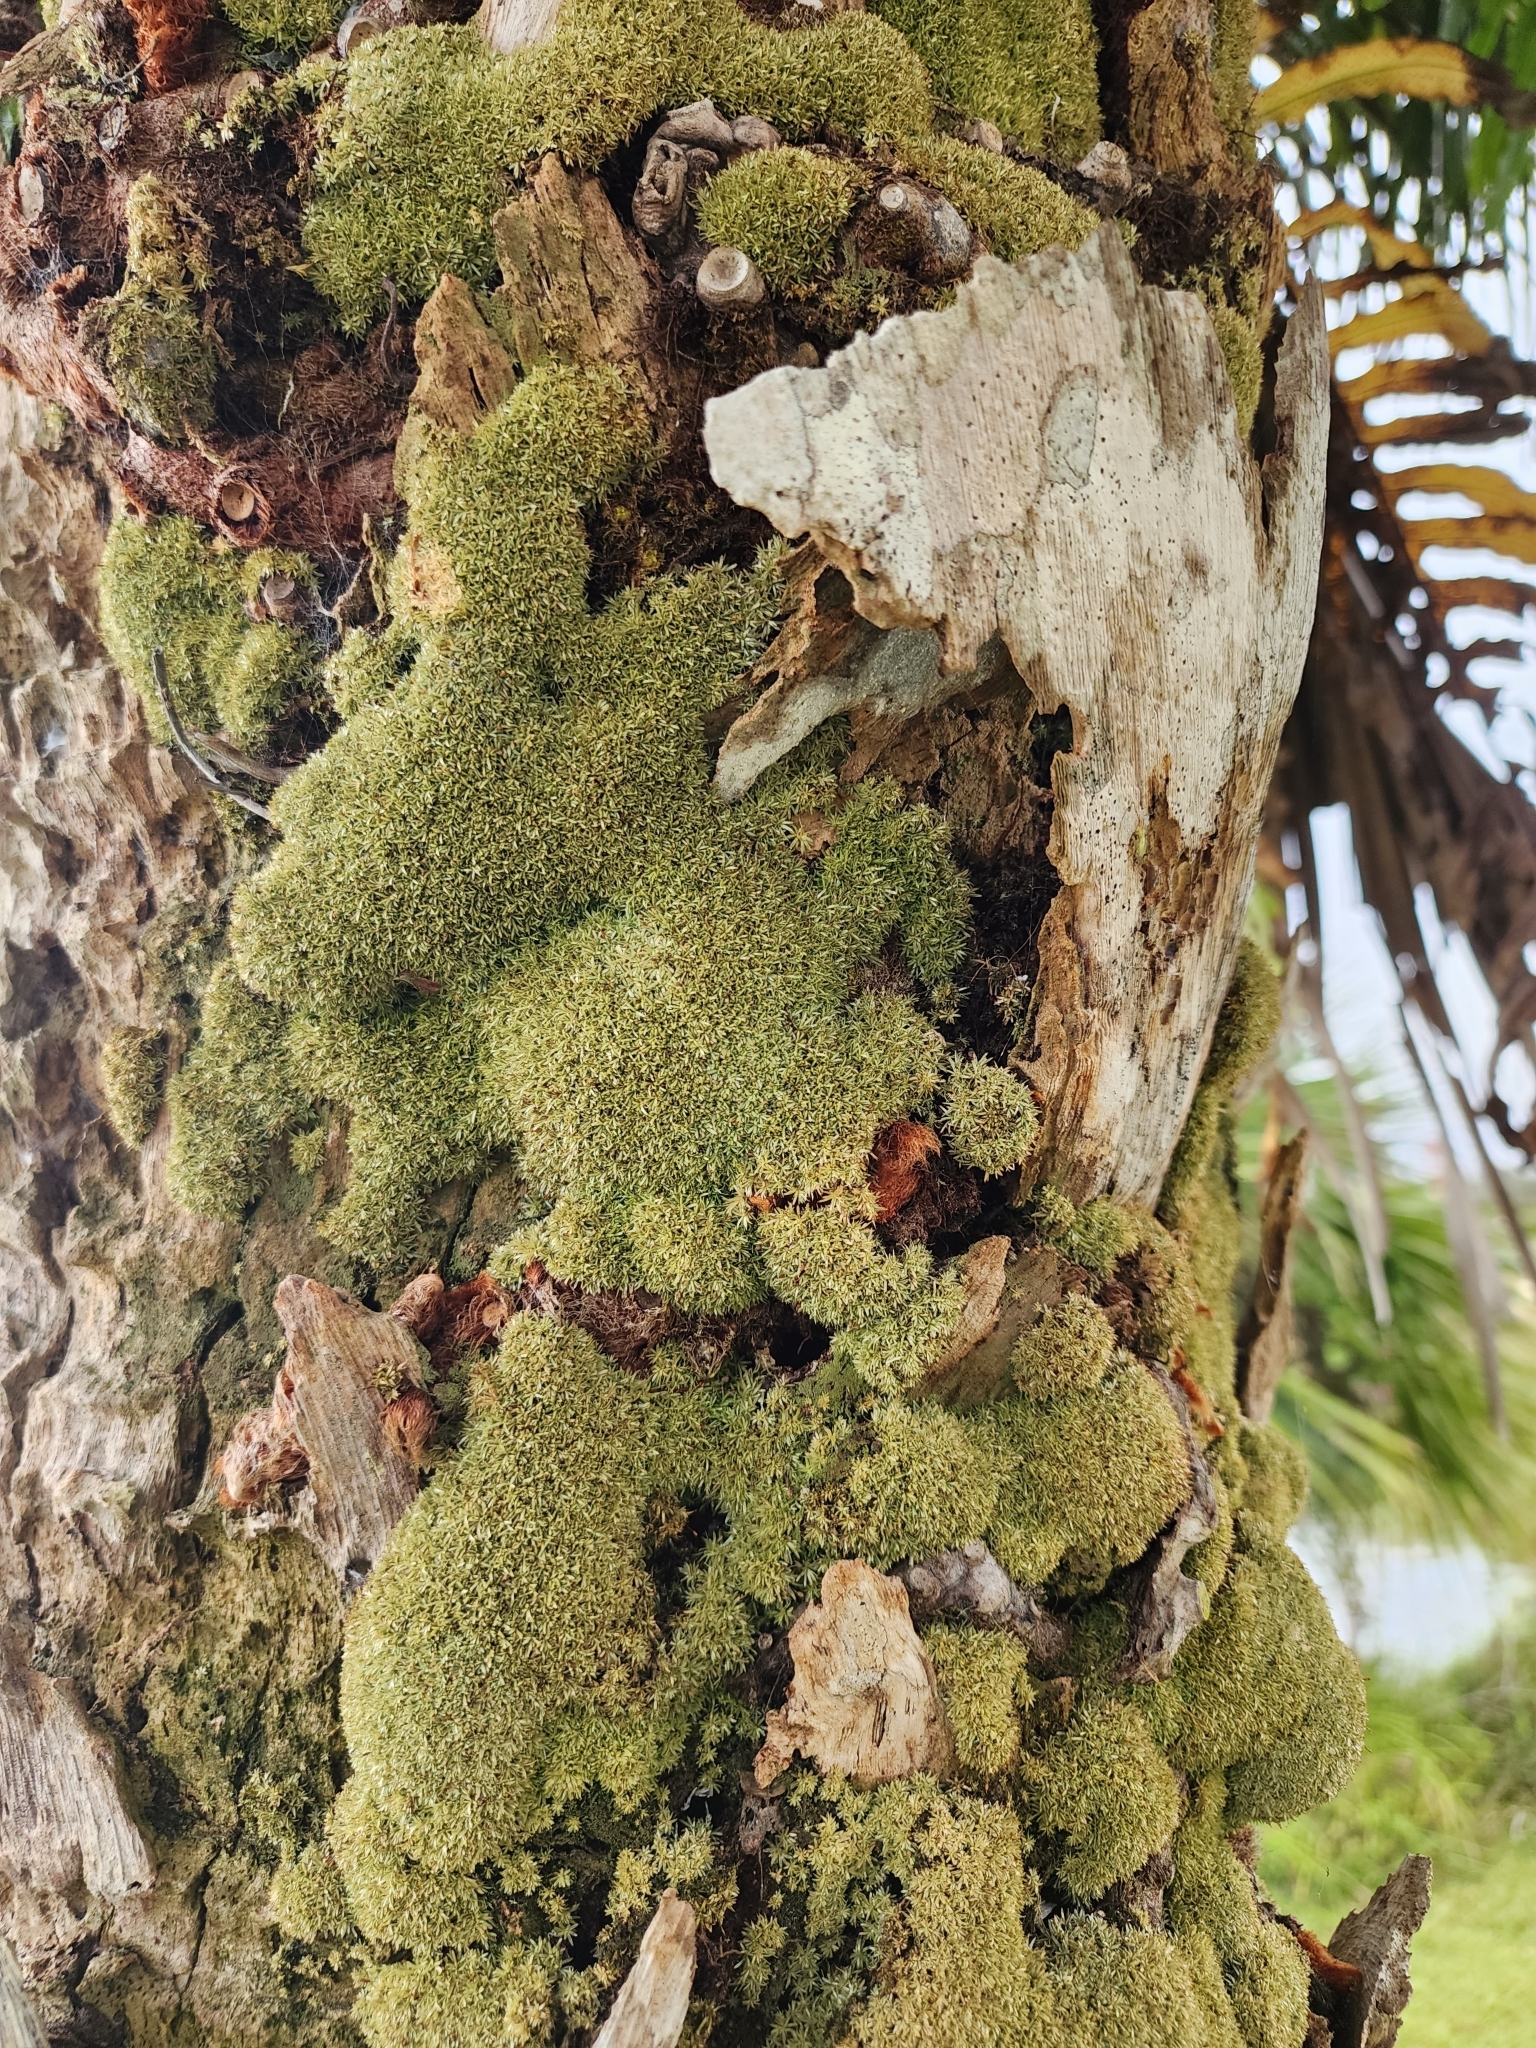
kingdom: Plantae
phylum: Bryophyta
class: Bryopsida
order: Dicranales
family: Octoblepharaceae
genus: Octoblepharum
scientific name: Octoblepharum albidum
